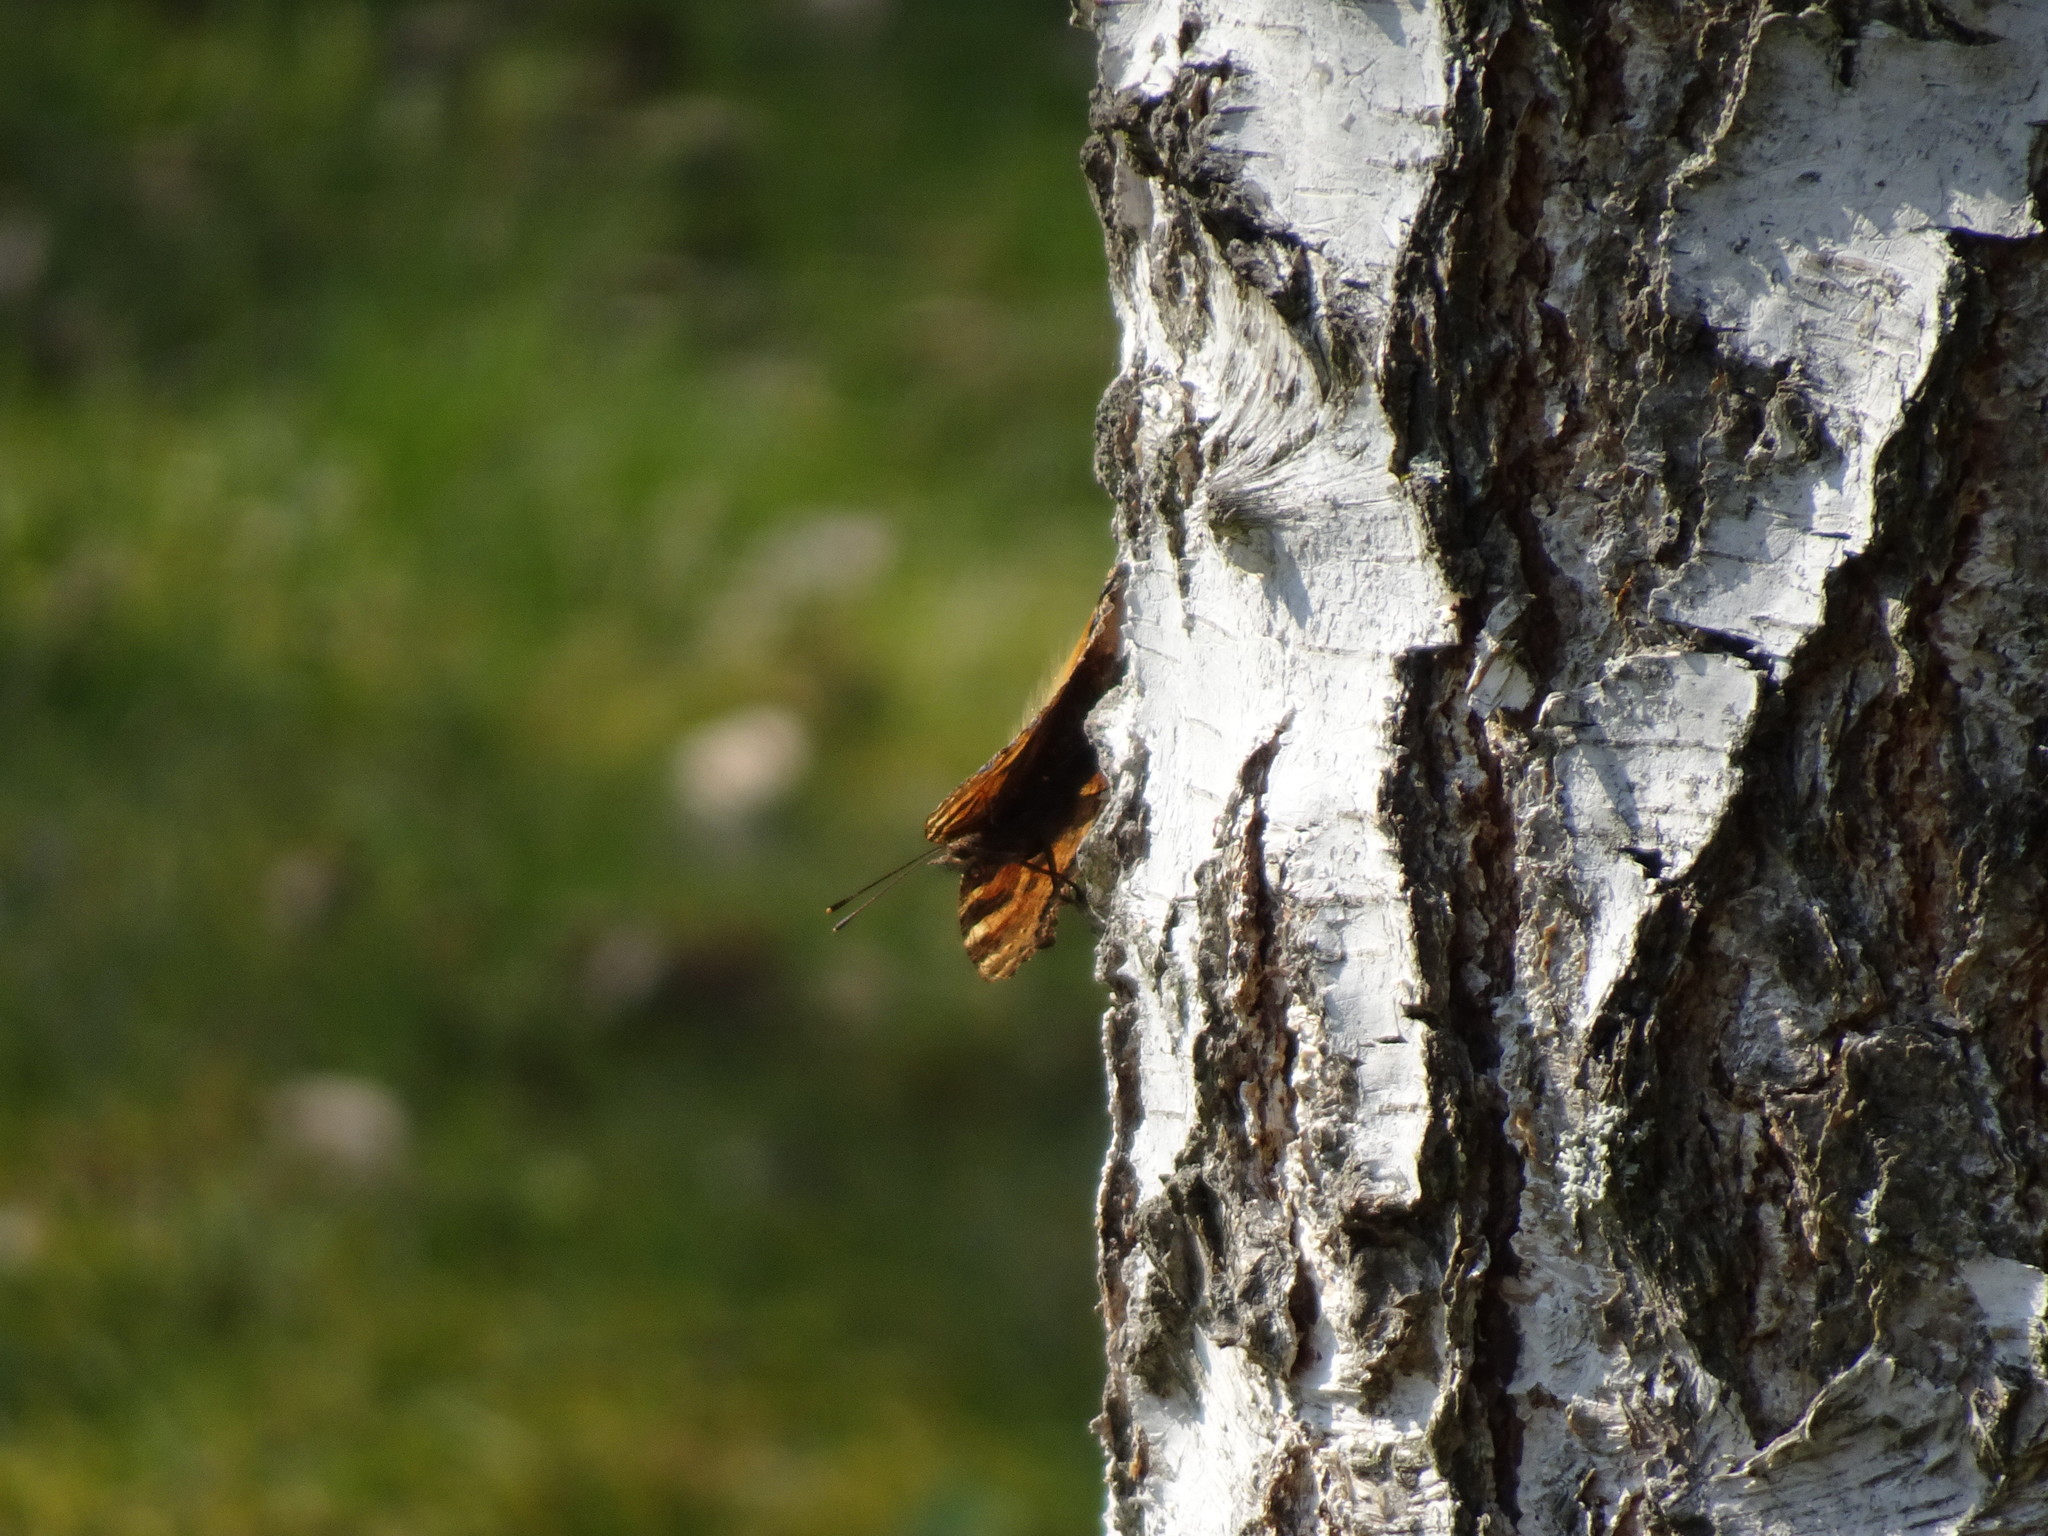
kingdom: Animalia
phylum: Arthropoda
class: Insecta
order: Lepidoptera
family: Nymphalidae
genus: Nymphalis
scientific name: Nymphalis polychloros
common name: Large tortoiseshell
